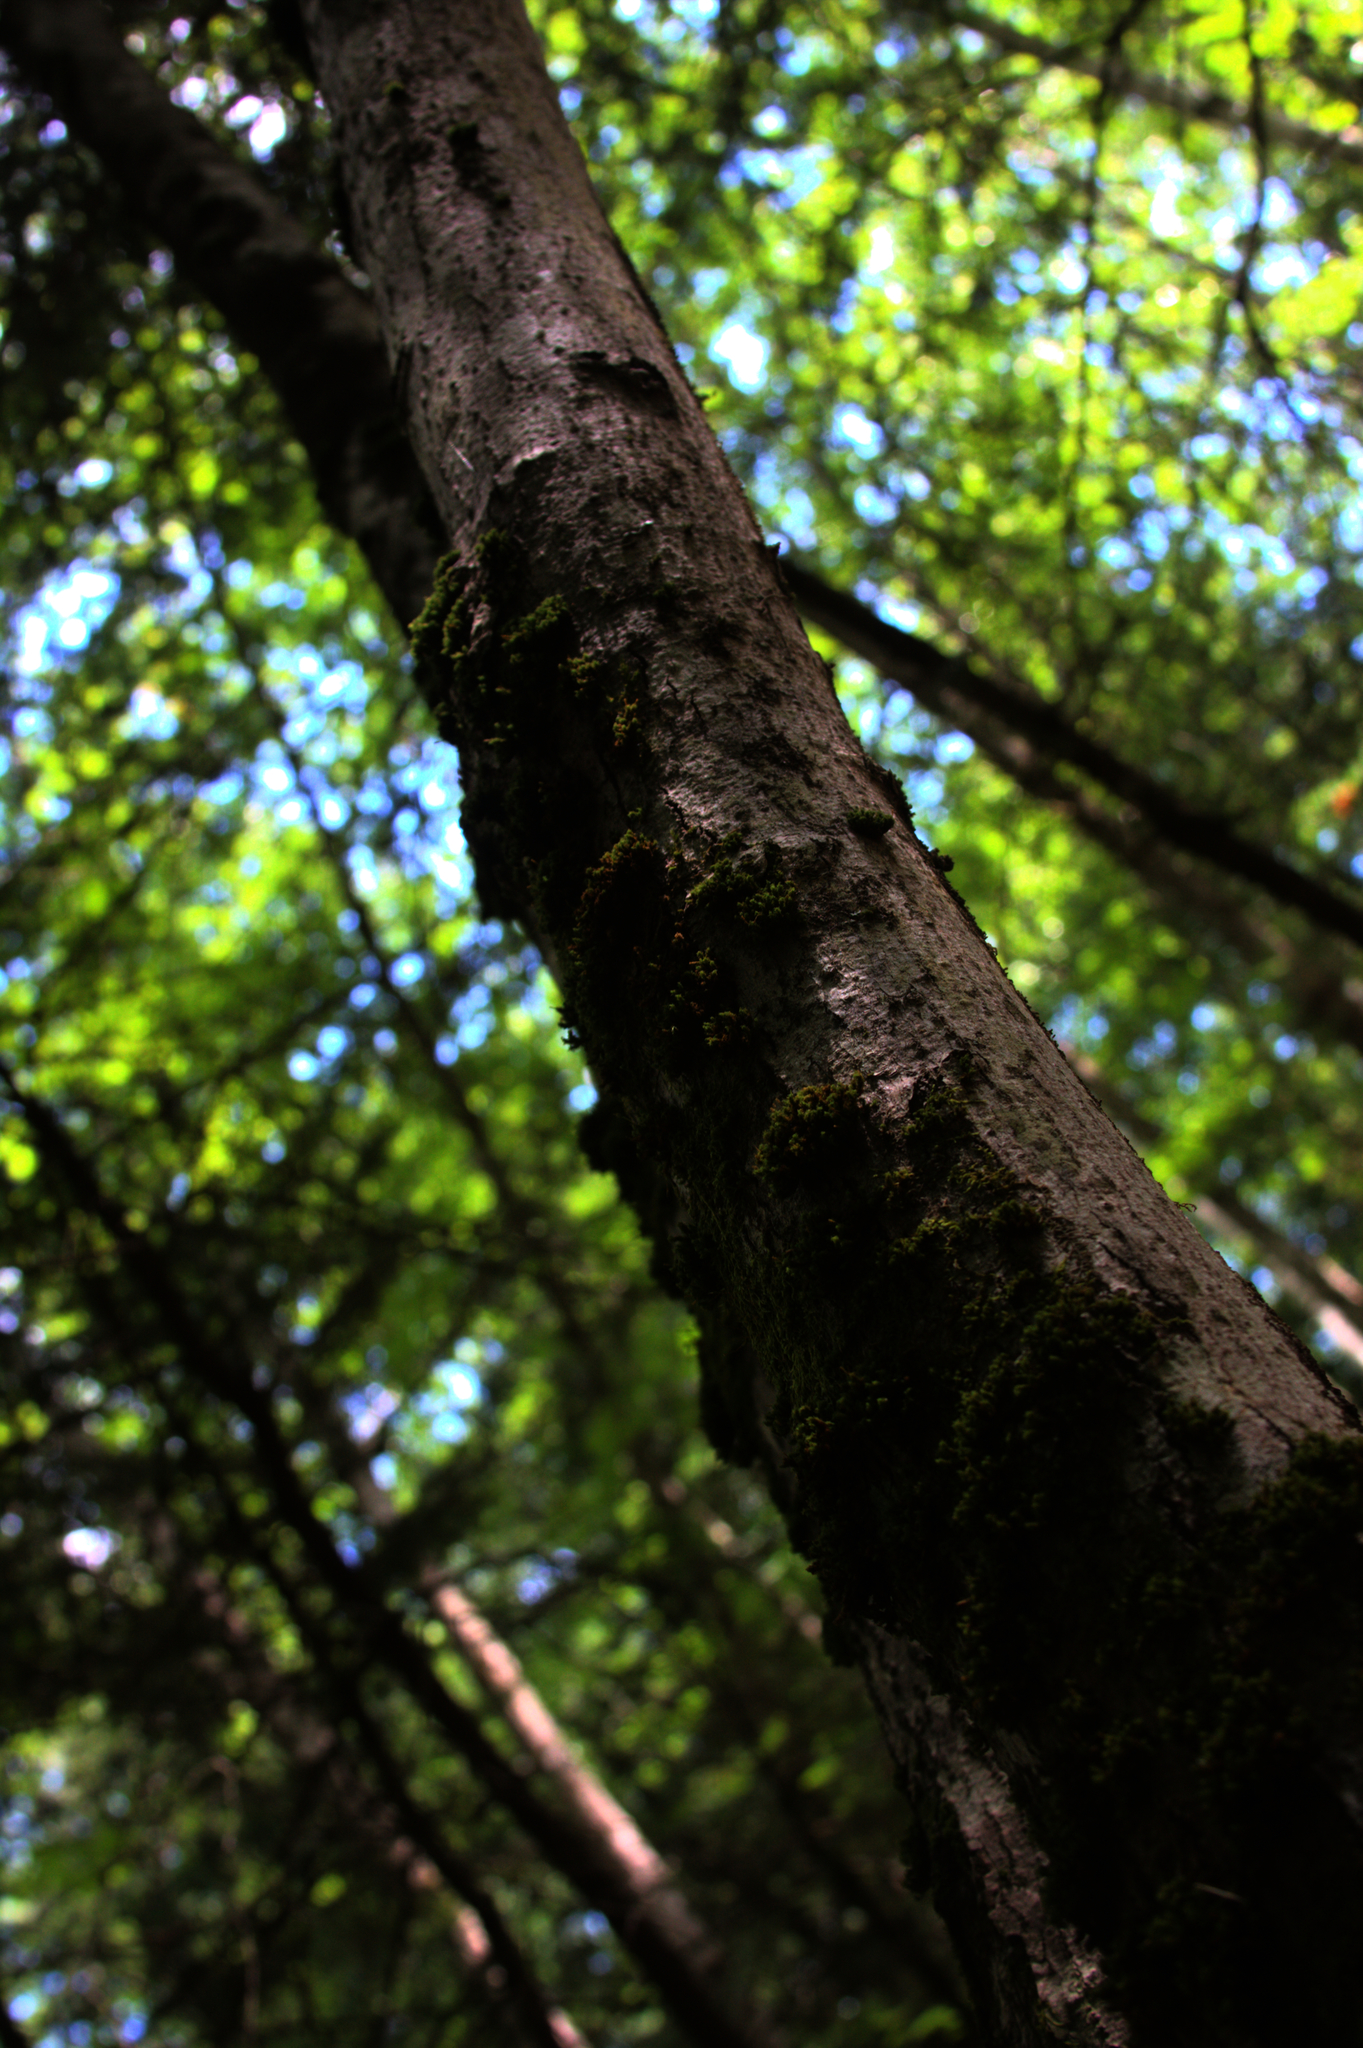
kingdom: Plantae
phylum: Bryophyta
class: Bryopsida
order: Orthotrichales
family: Orthotrichaceae
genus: Ulota
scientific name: Ulota crispa
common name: Crisped pincushion moss
